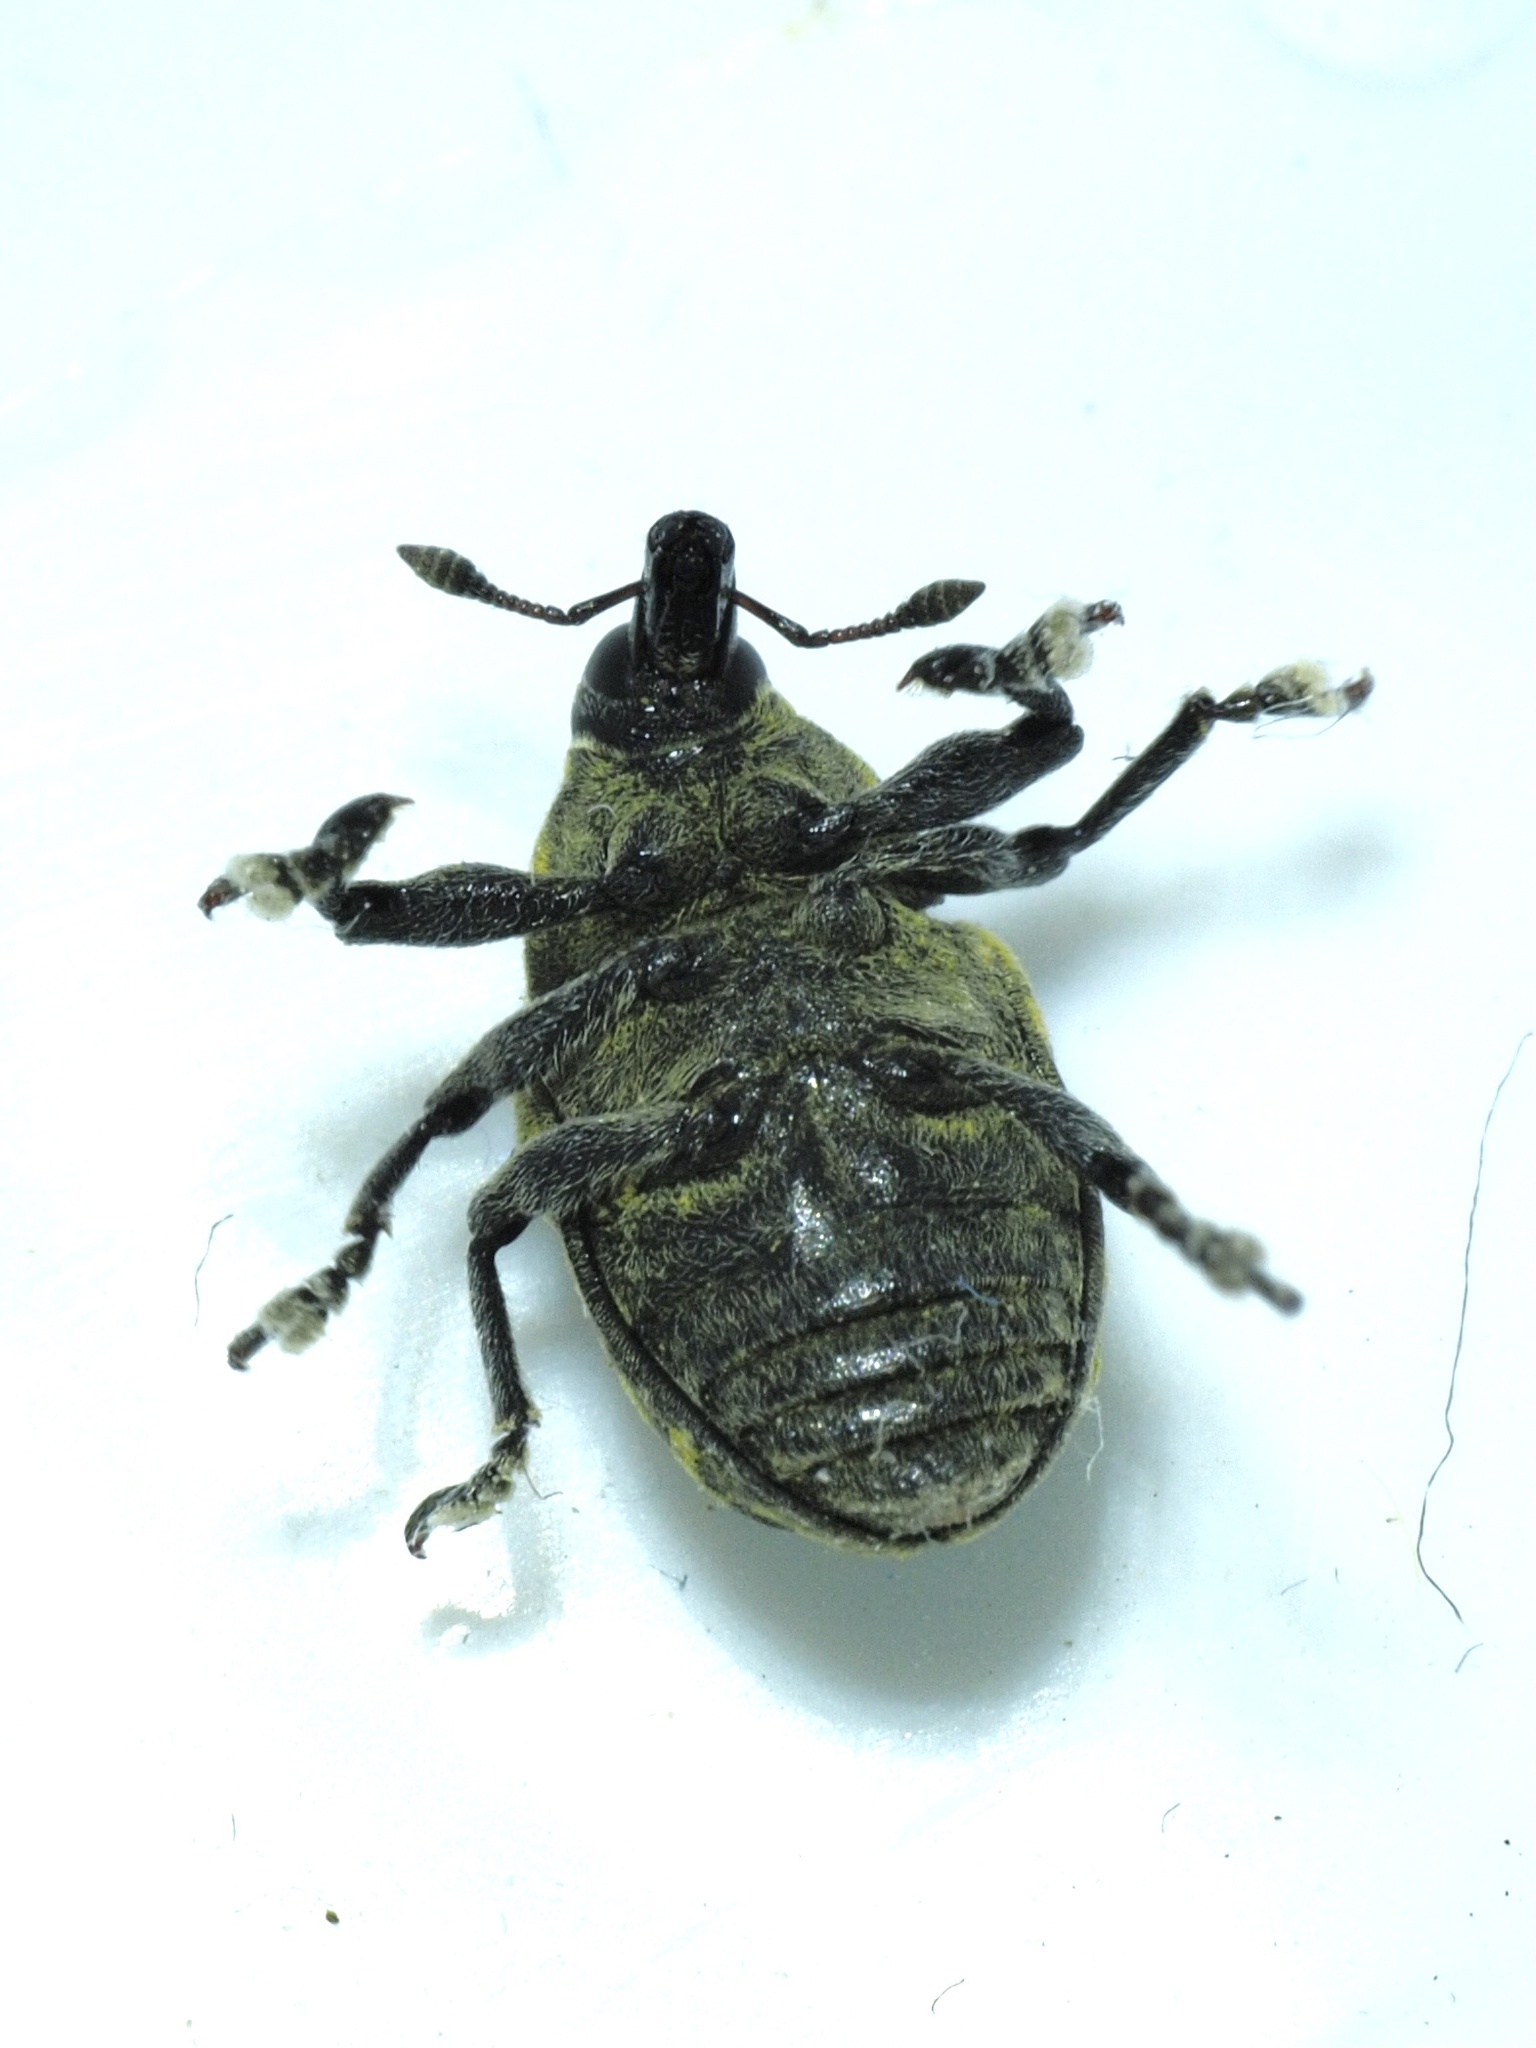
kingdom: Animalia
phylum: Arthropoda
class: Insecta
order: Coleoptera
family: Curculionidae
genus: Larinus
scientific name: Larinus turbinatus
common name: Weevil
